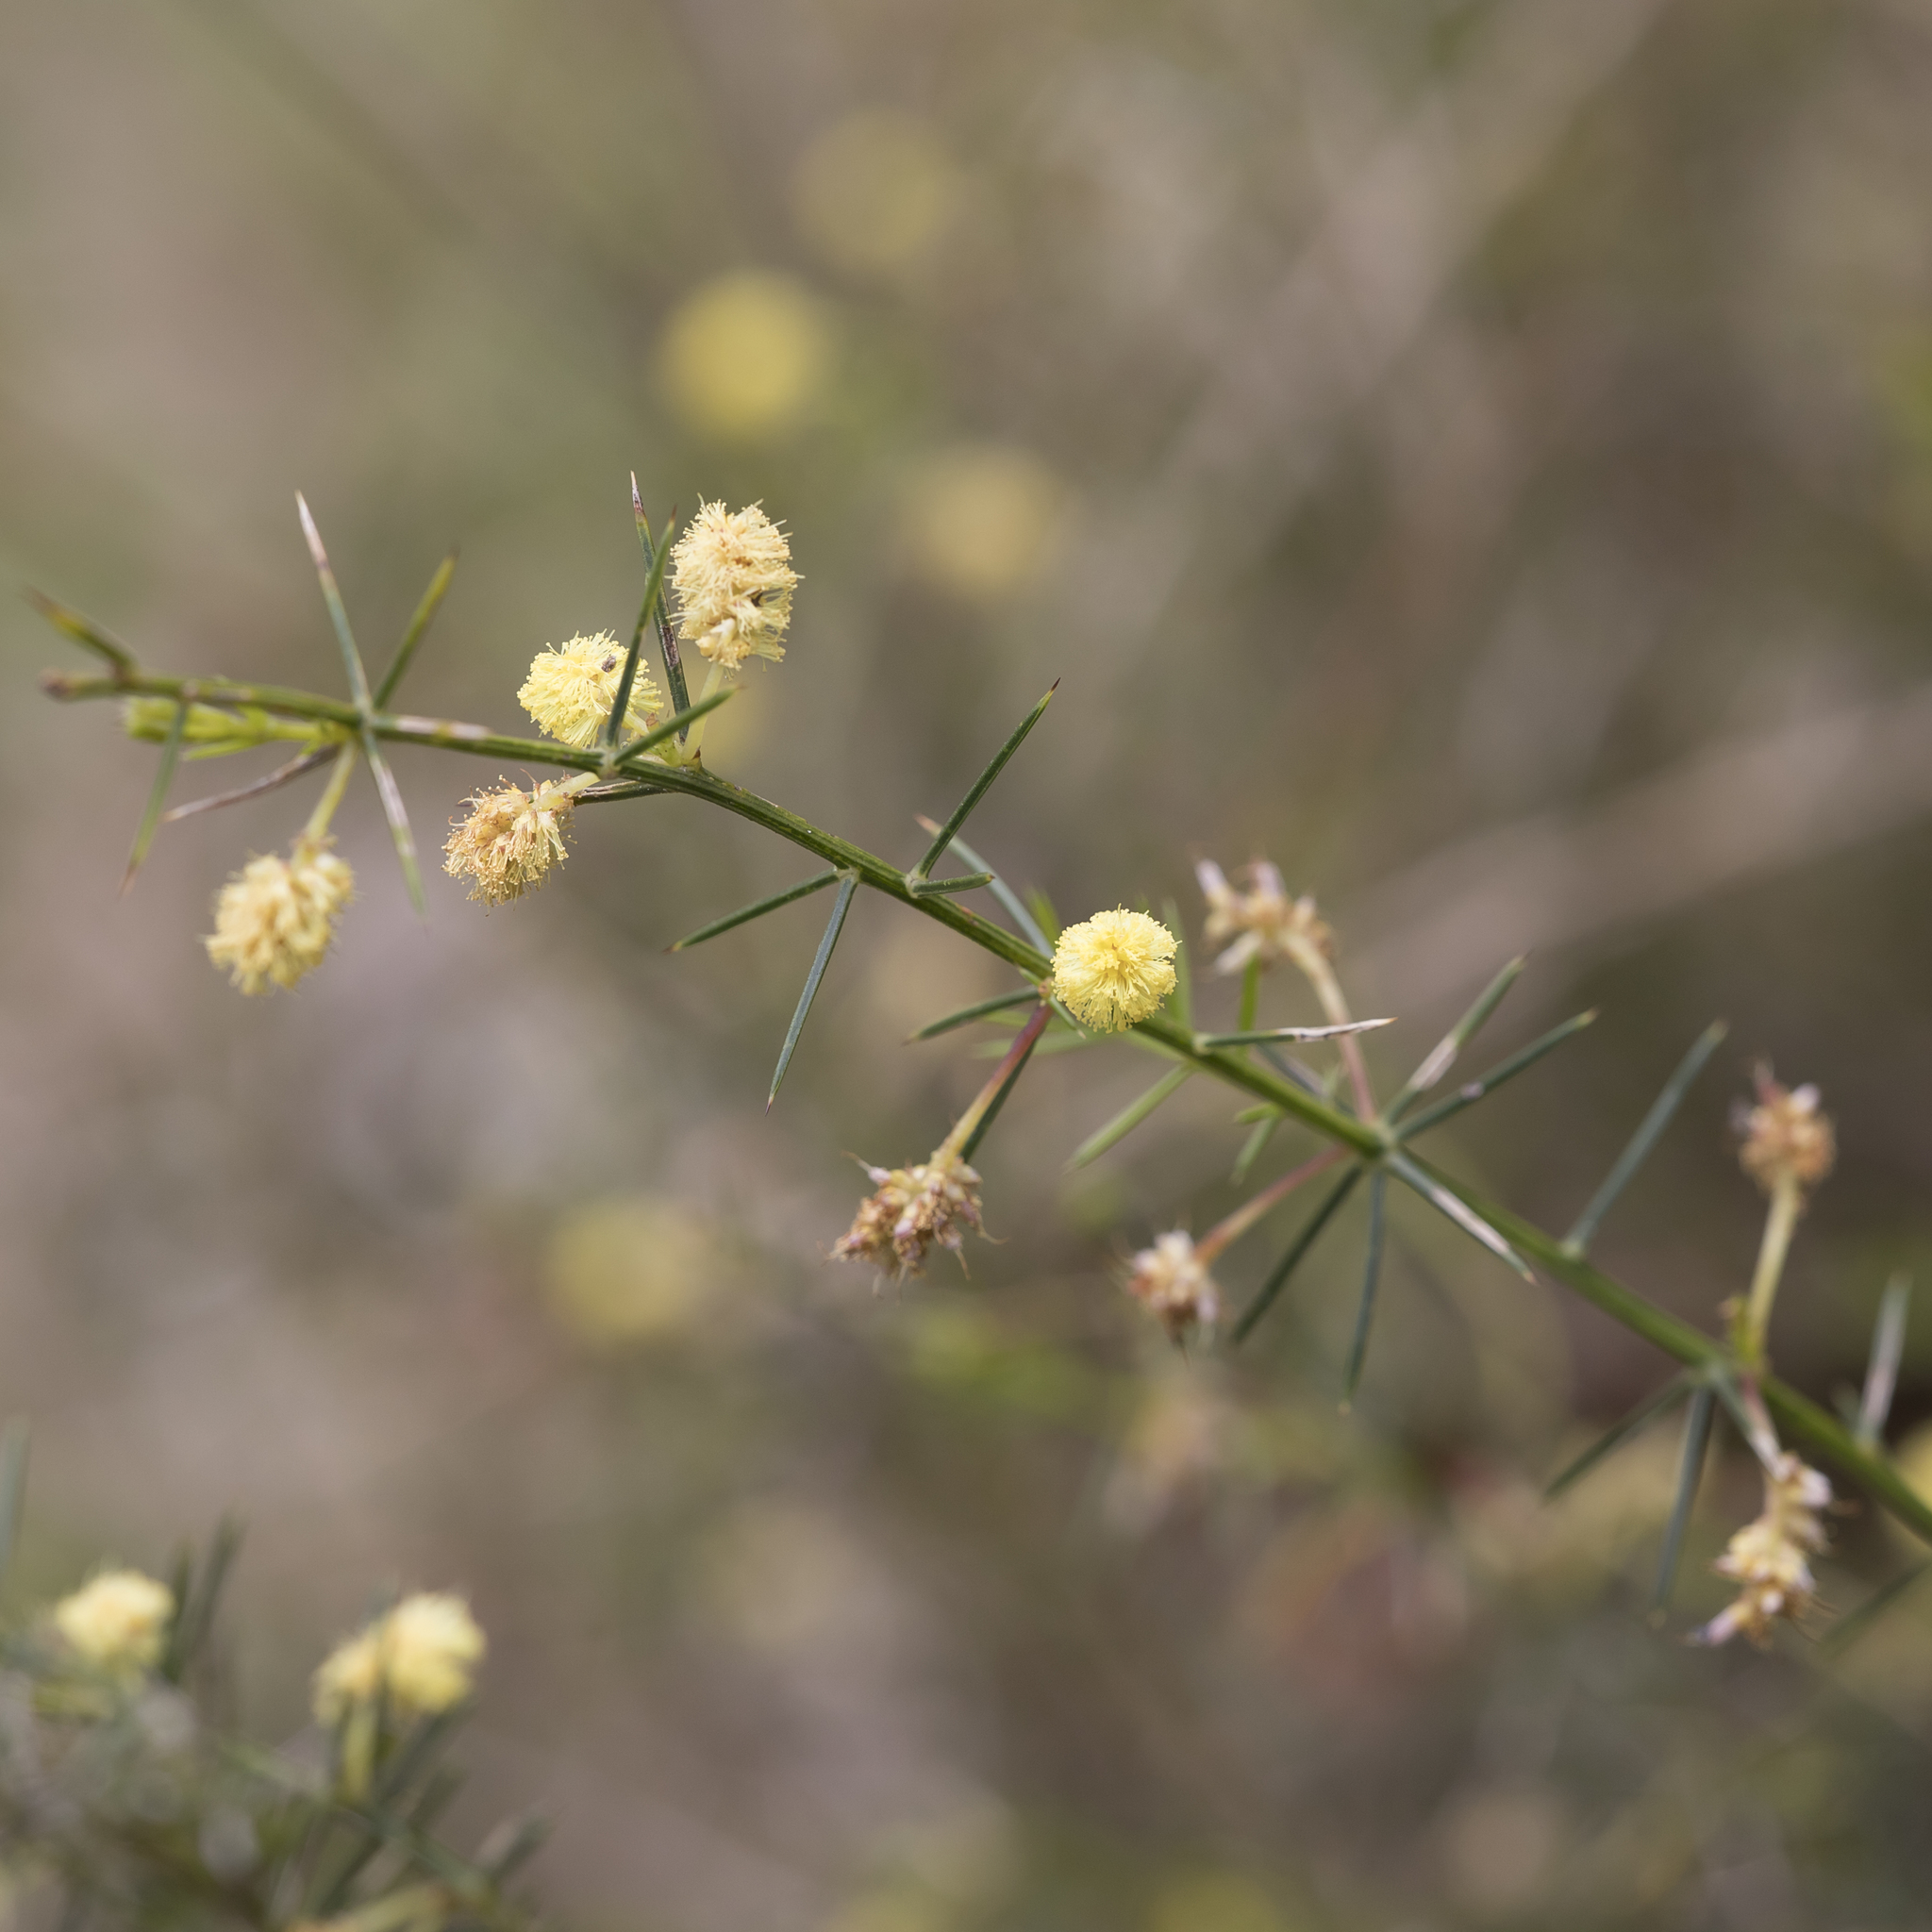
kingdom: Plantae
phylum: Tracheophyta
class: Magnoliopsida
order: Fabales
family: Fabaceae
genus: Acacia
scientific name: Acacia verticillata
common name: Prickly moses
